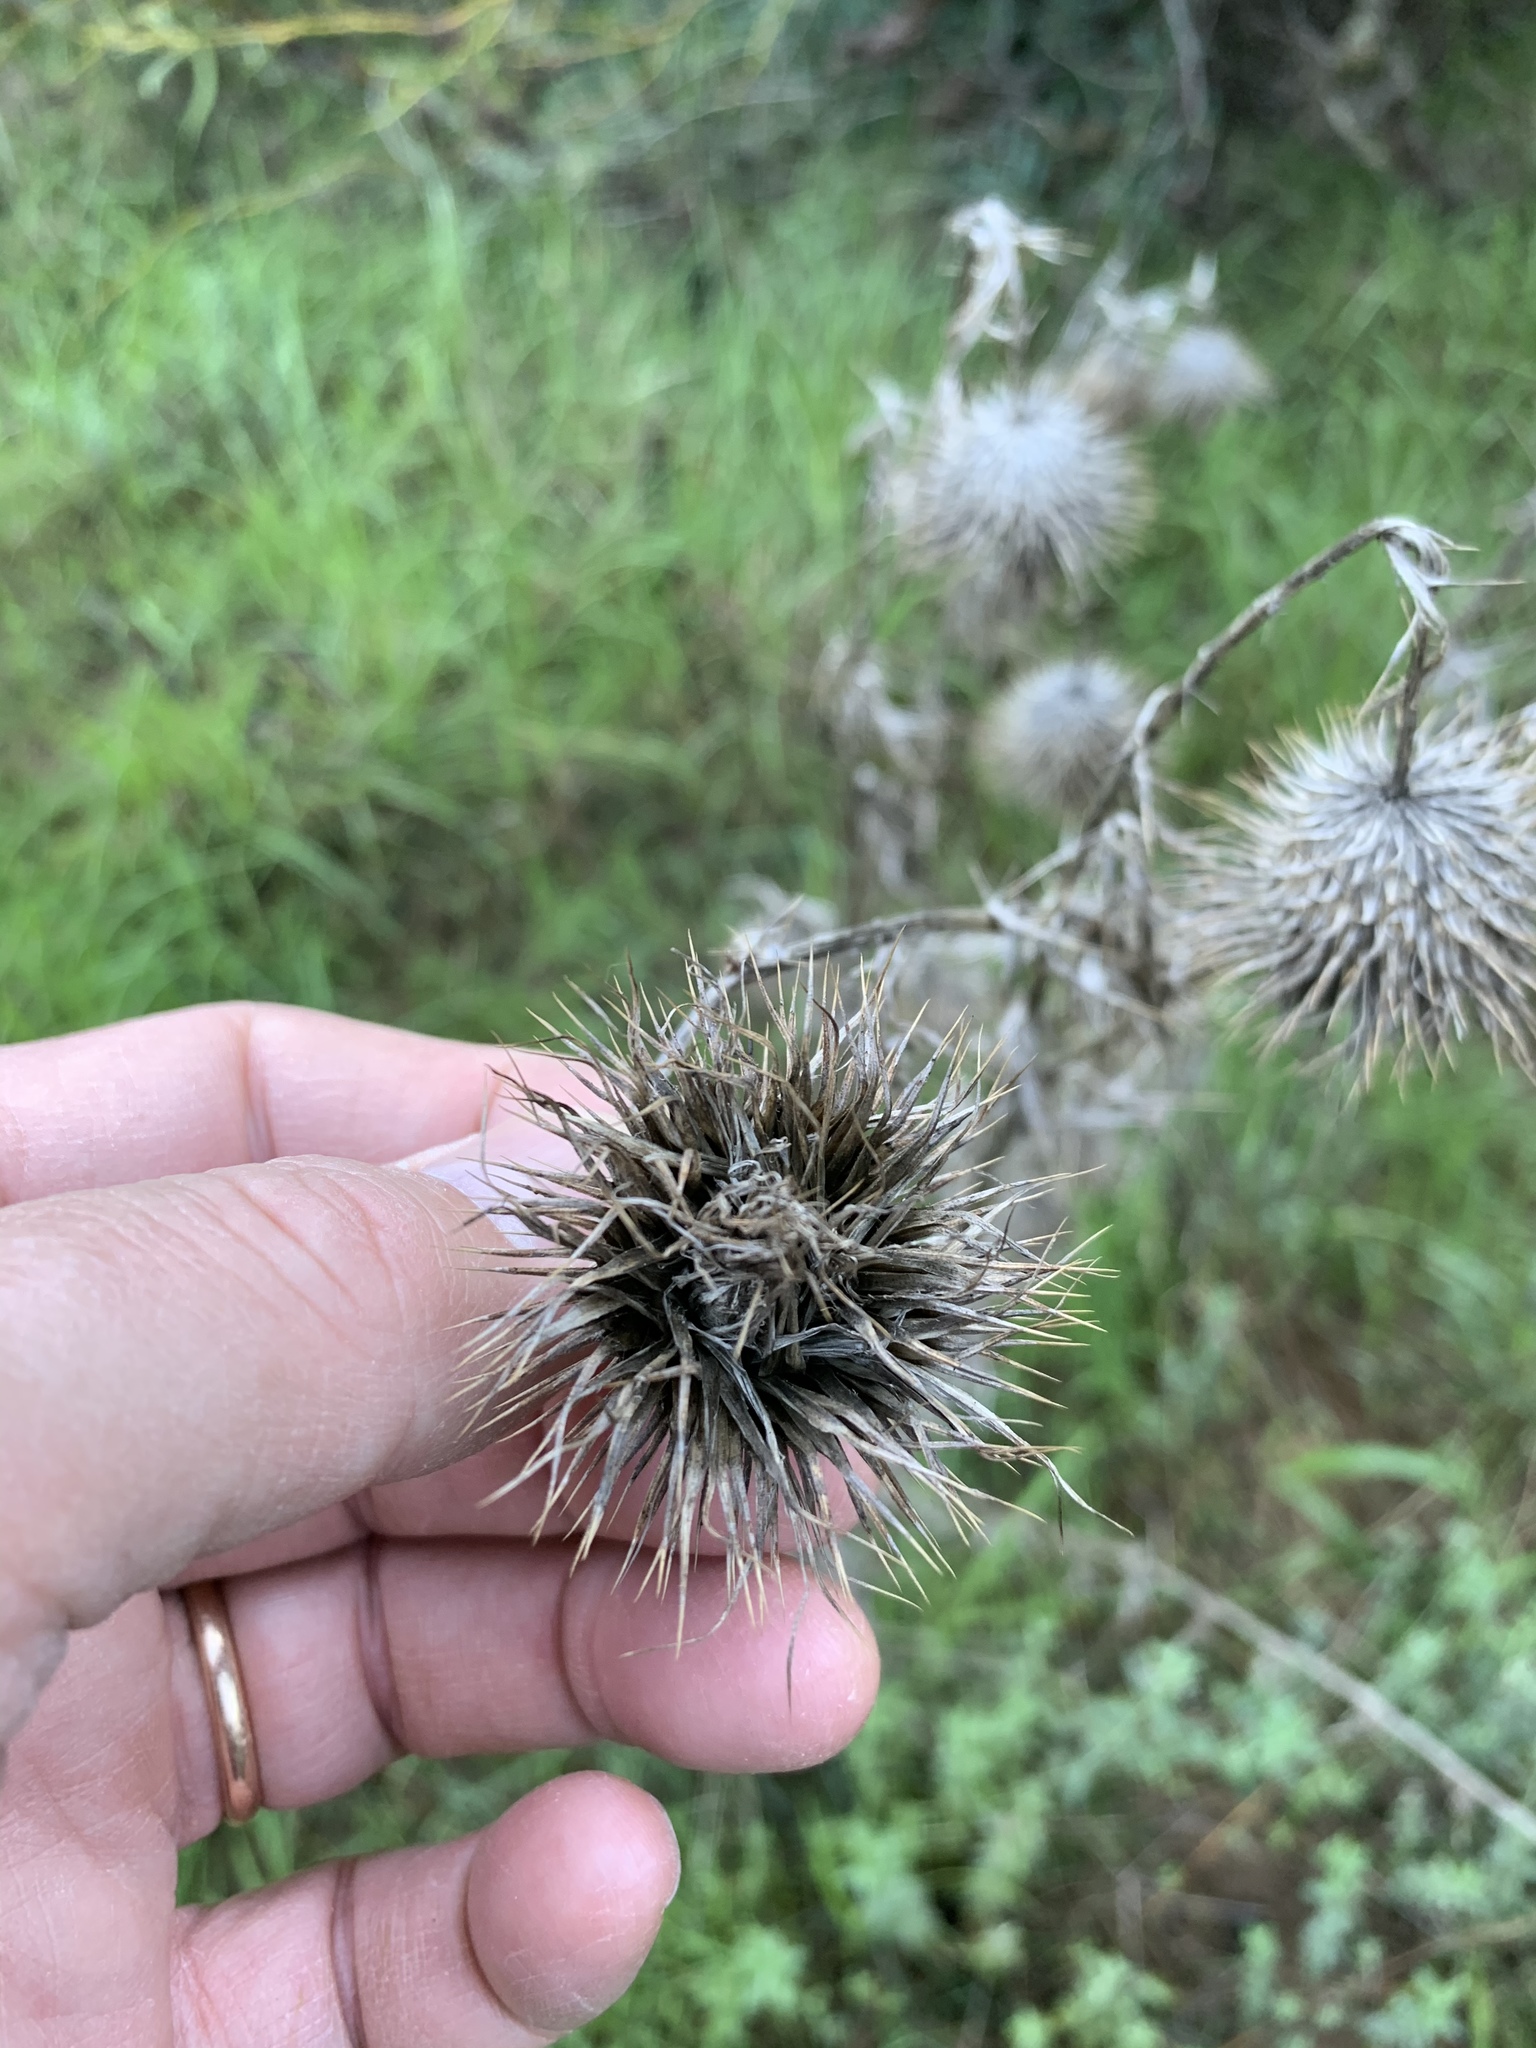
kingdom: Plantae
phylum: Tracheophyta
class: Magnoliopsida
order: Asterales
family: Asteraceae
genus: Cirsium
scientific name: Cirsium vulgare
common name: Bull thistle
